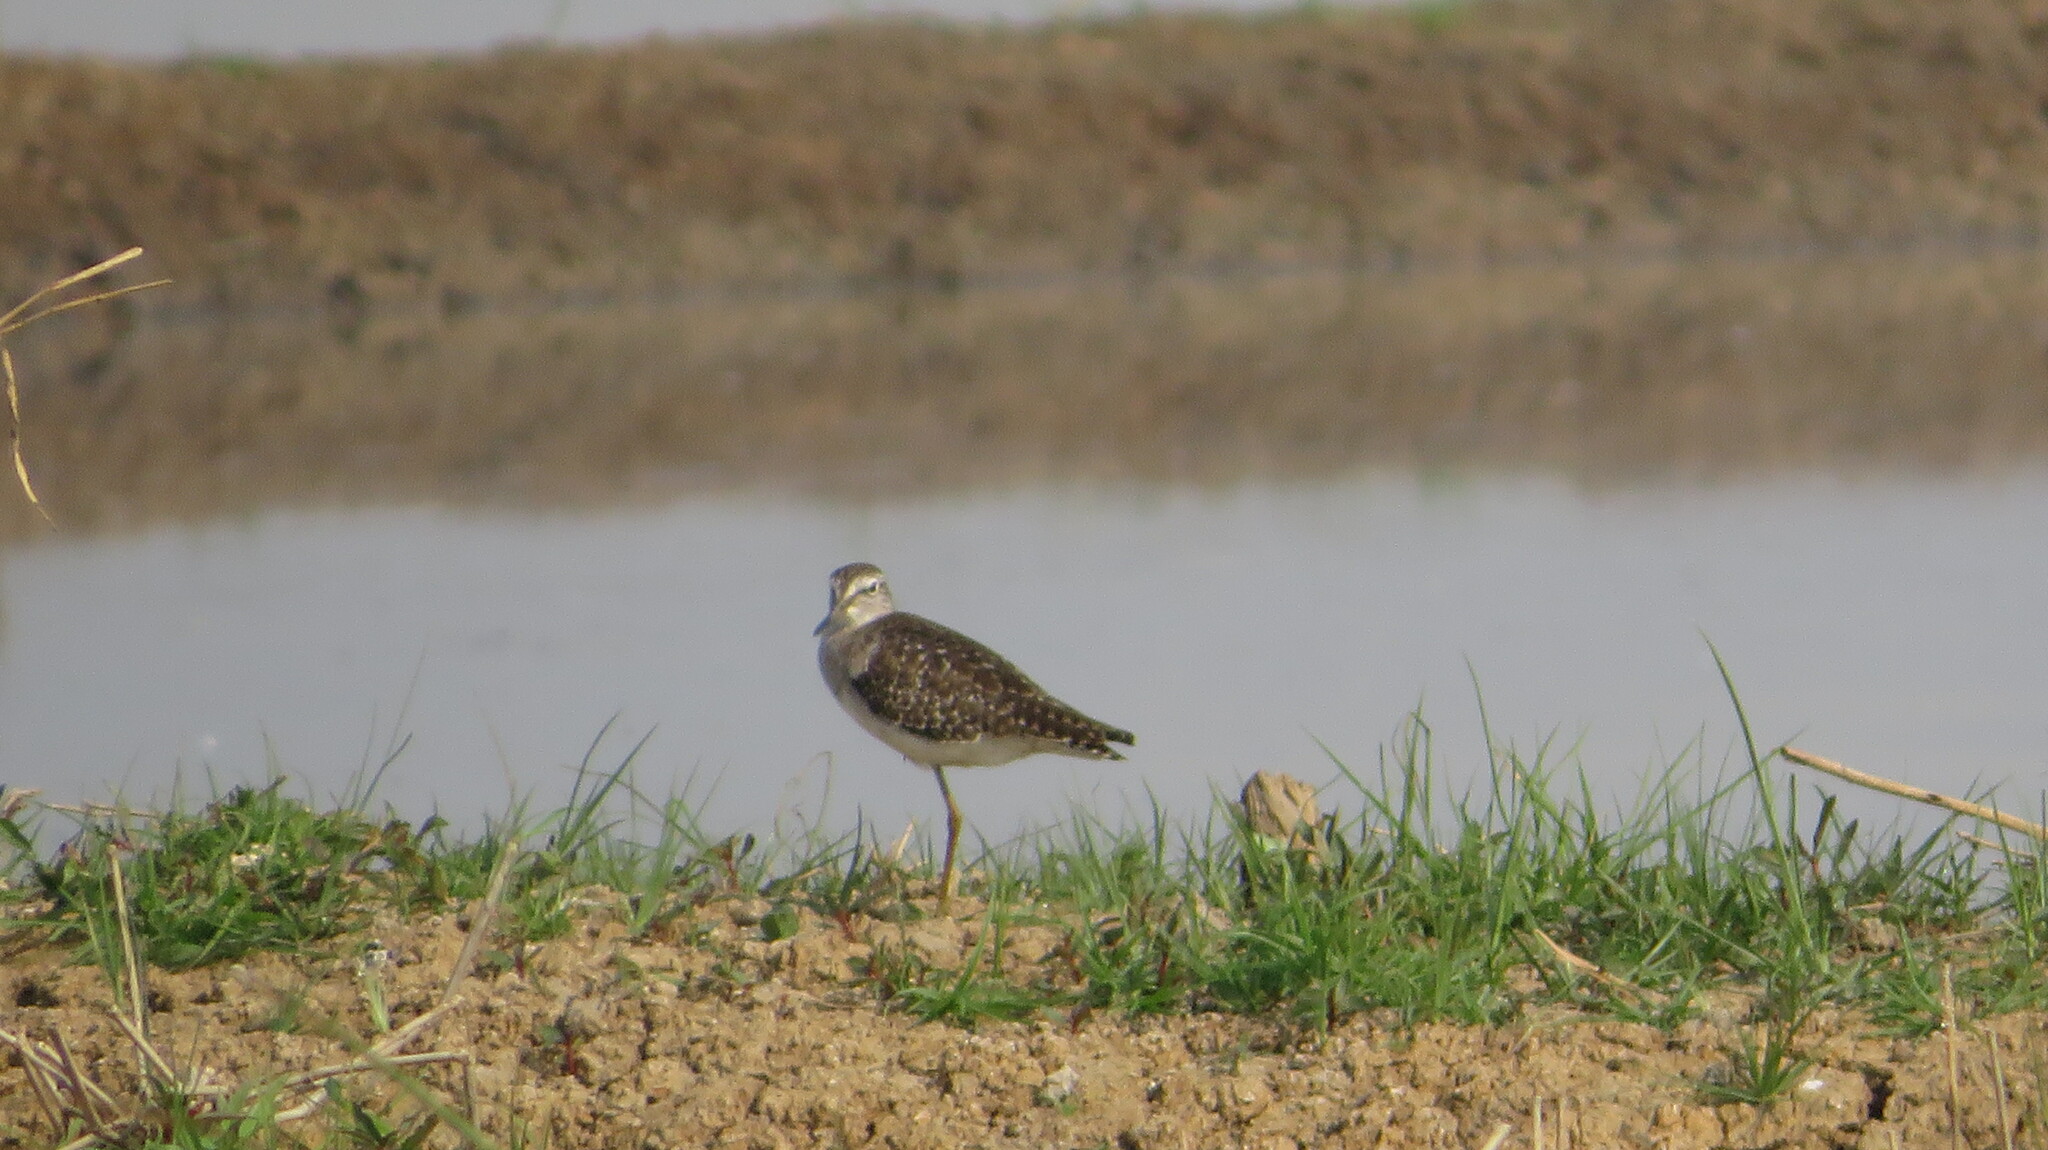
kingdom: Animalia
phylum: Chordata
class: Aves
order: Charadriiformes
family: Scolopacidae
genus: Tringa
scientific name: Tringa glareola
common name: Wood sandpiper
